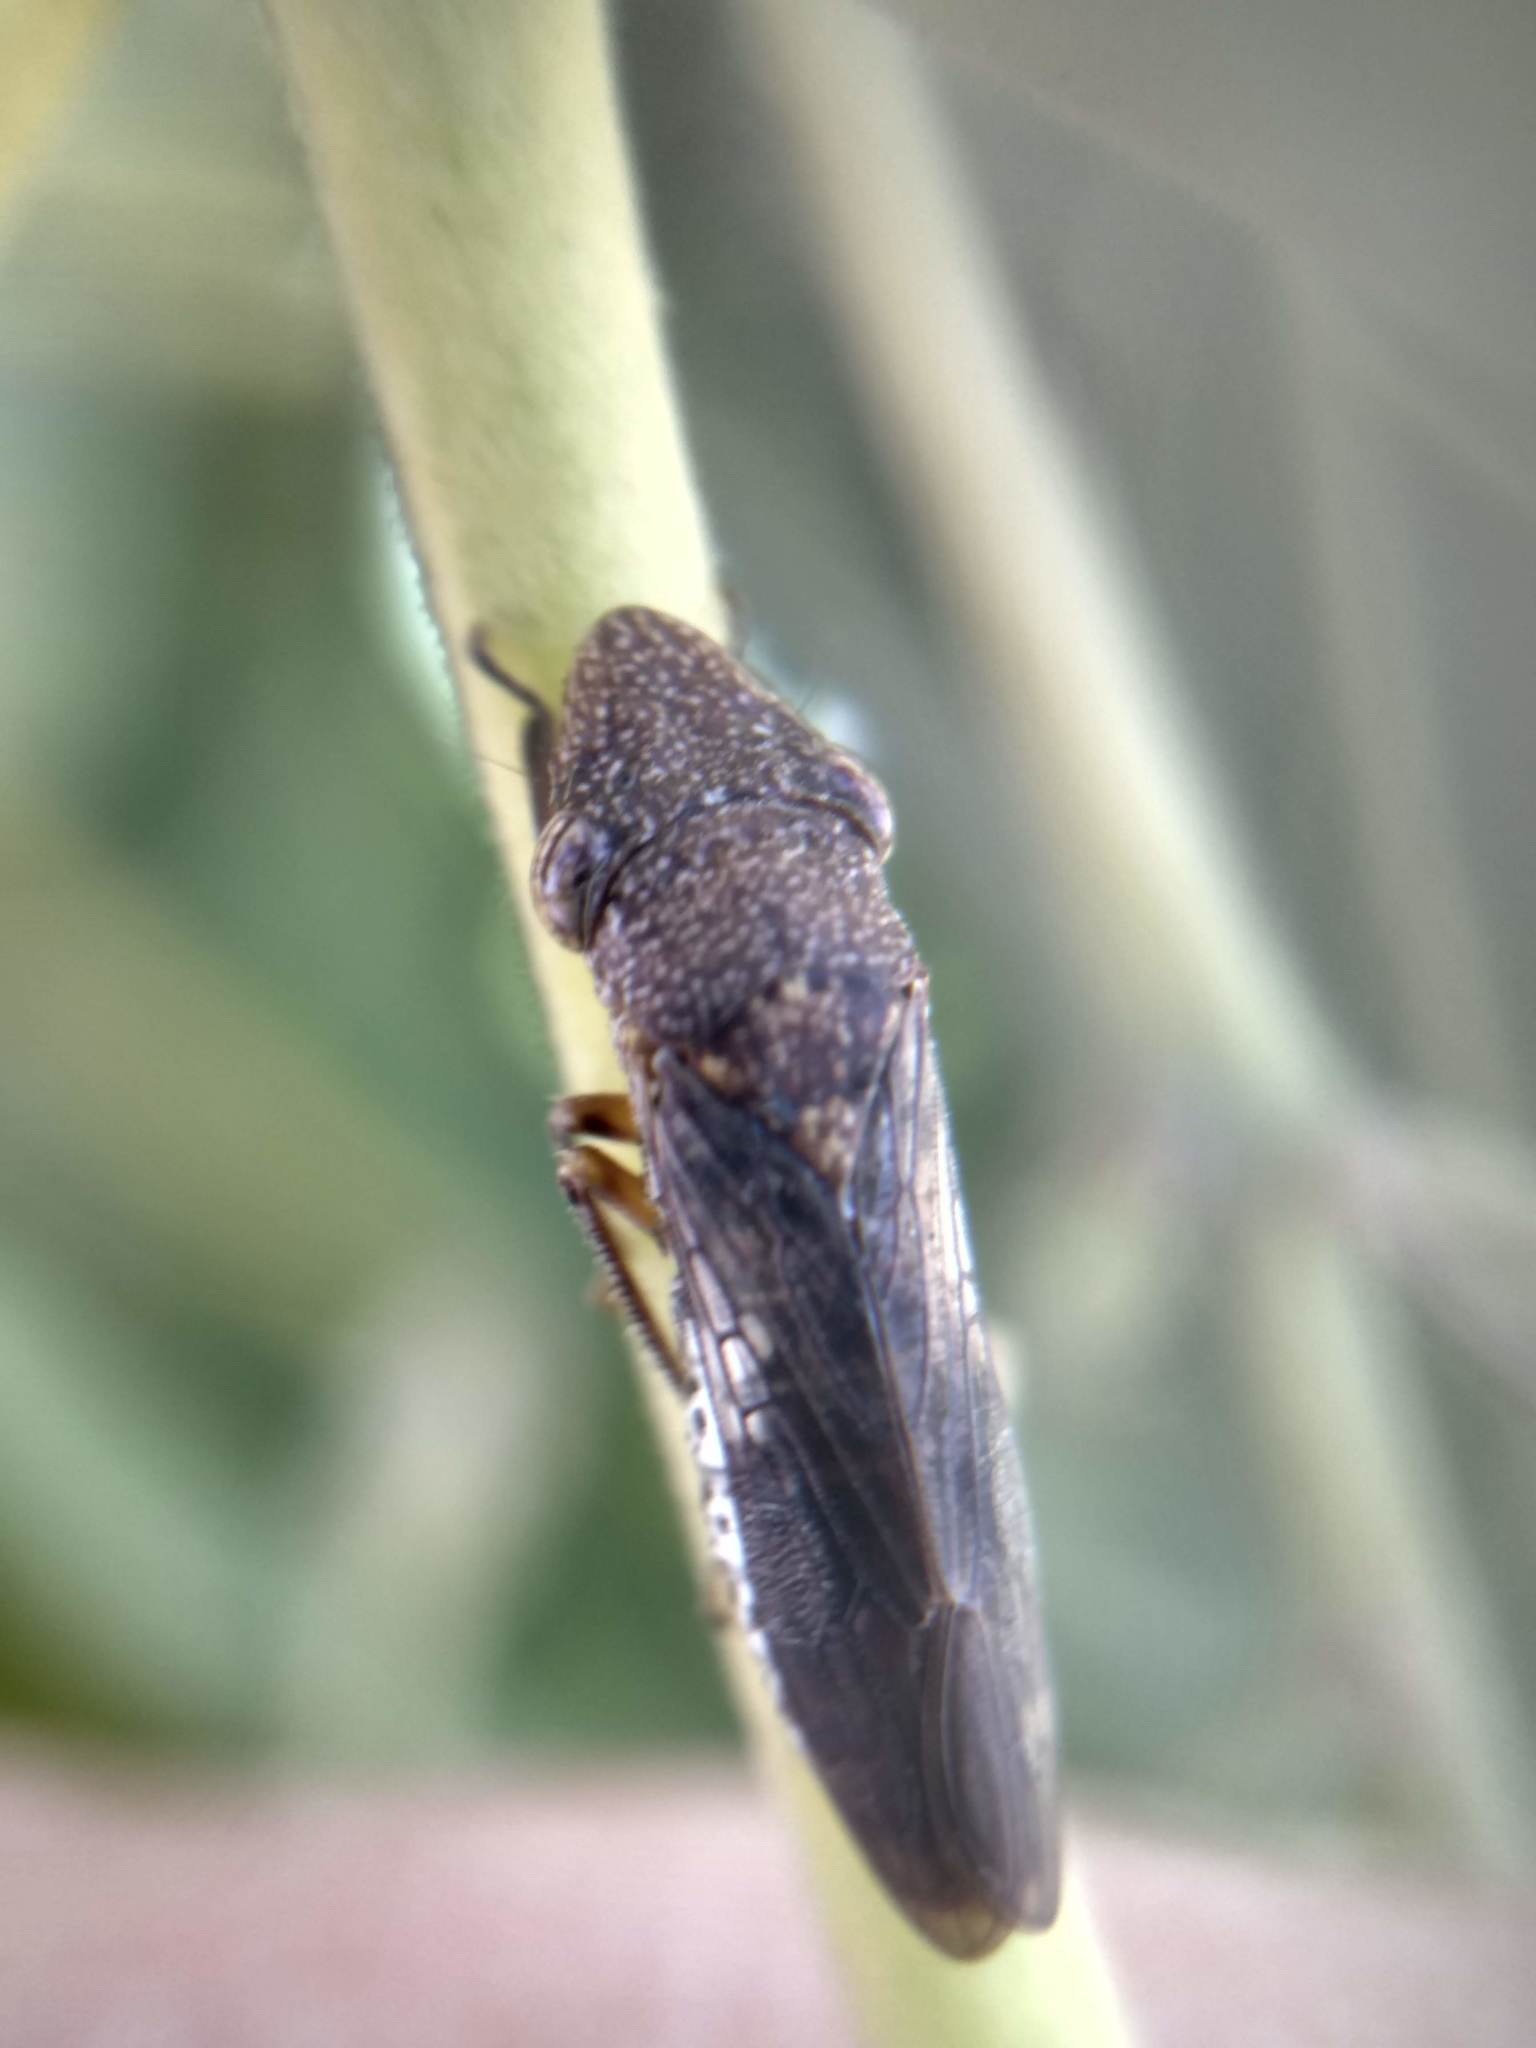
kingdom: Animalia
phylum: Arthropoda
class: Insecta
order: Hemiptera
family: Cicadellidae
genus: Homalodisca
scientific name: Homalodisca vitripennis
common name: Glassy-winged sharpshooter
